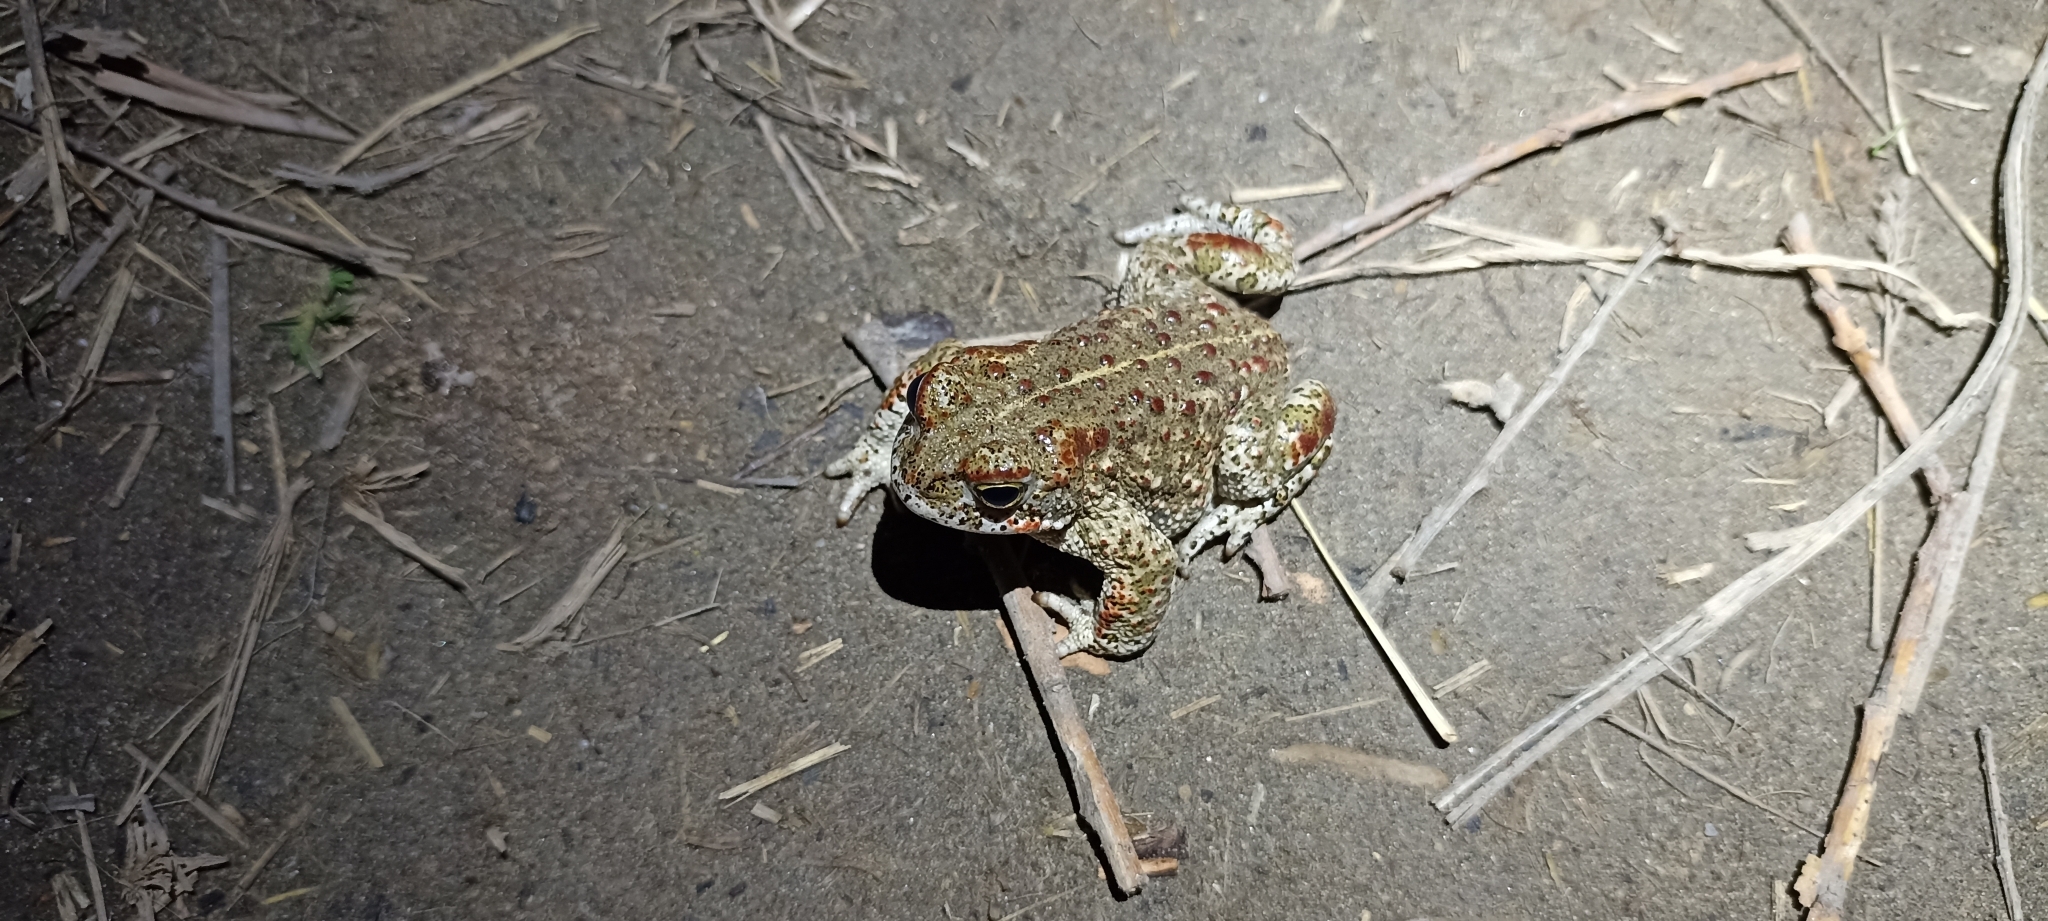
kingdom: Animalia
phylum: Chordata
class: Amphibia
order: Anura
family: Bufonidae
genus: Epidalea
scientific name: Epidalea calamita
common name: Natterjack toad
